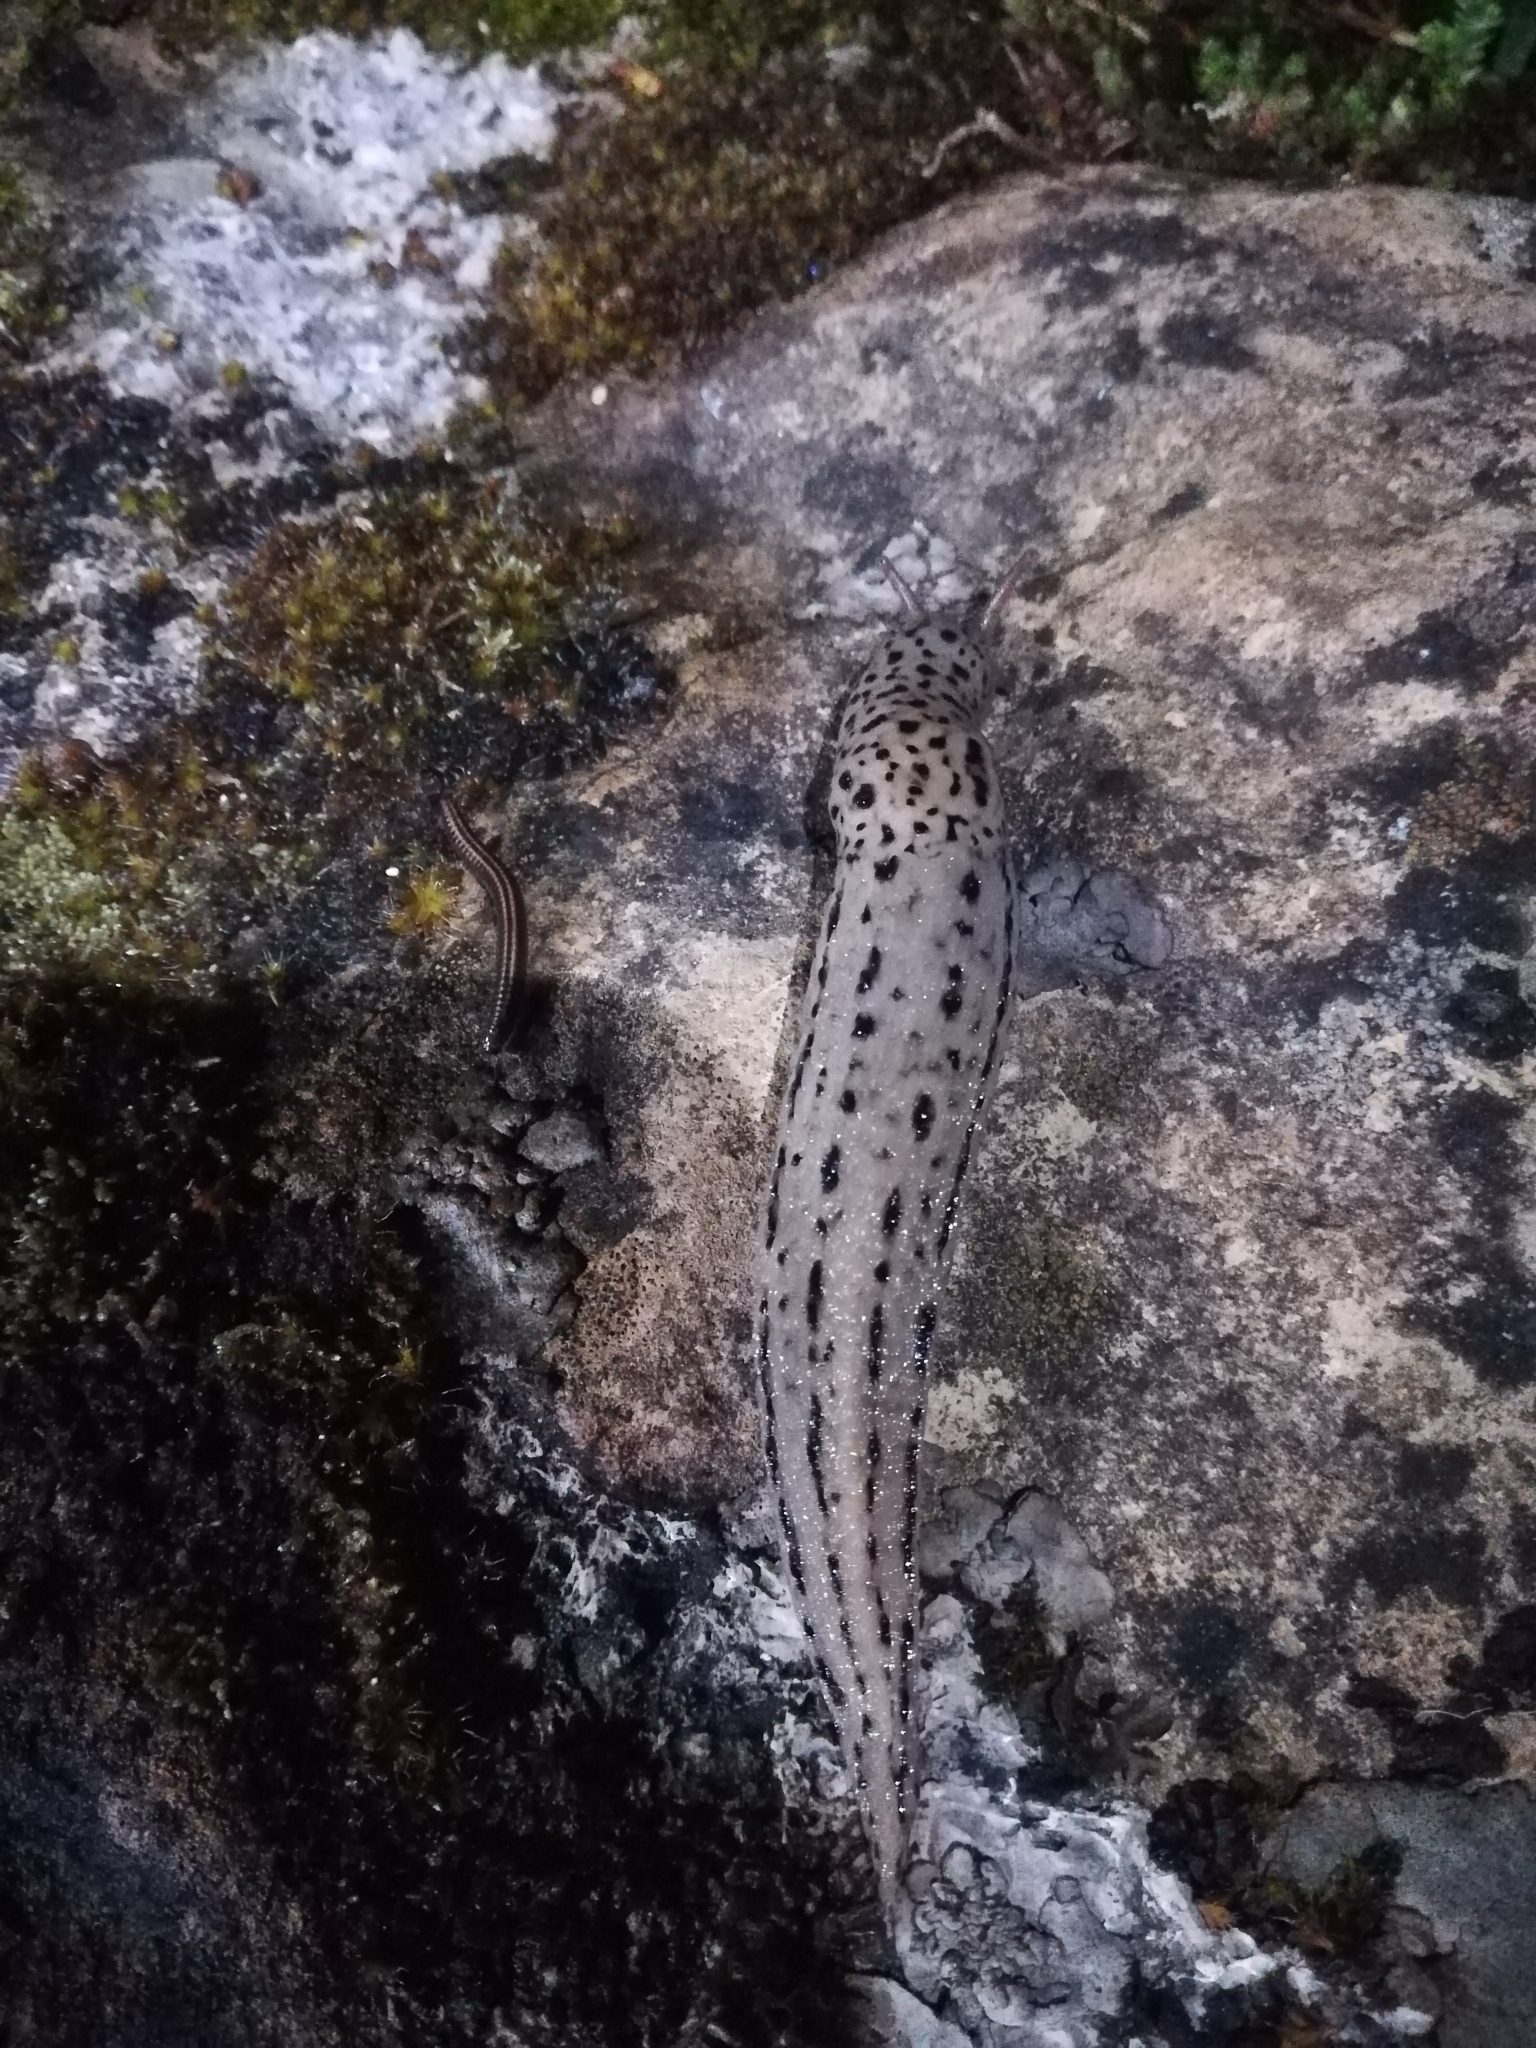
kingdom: Animalia
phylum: Mollusca
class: Gastropoda
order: Stylommatophora
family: Limacidae
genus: Limax
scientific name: Limax maximus
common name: Great grey slug
